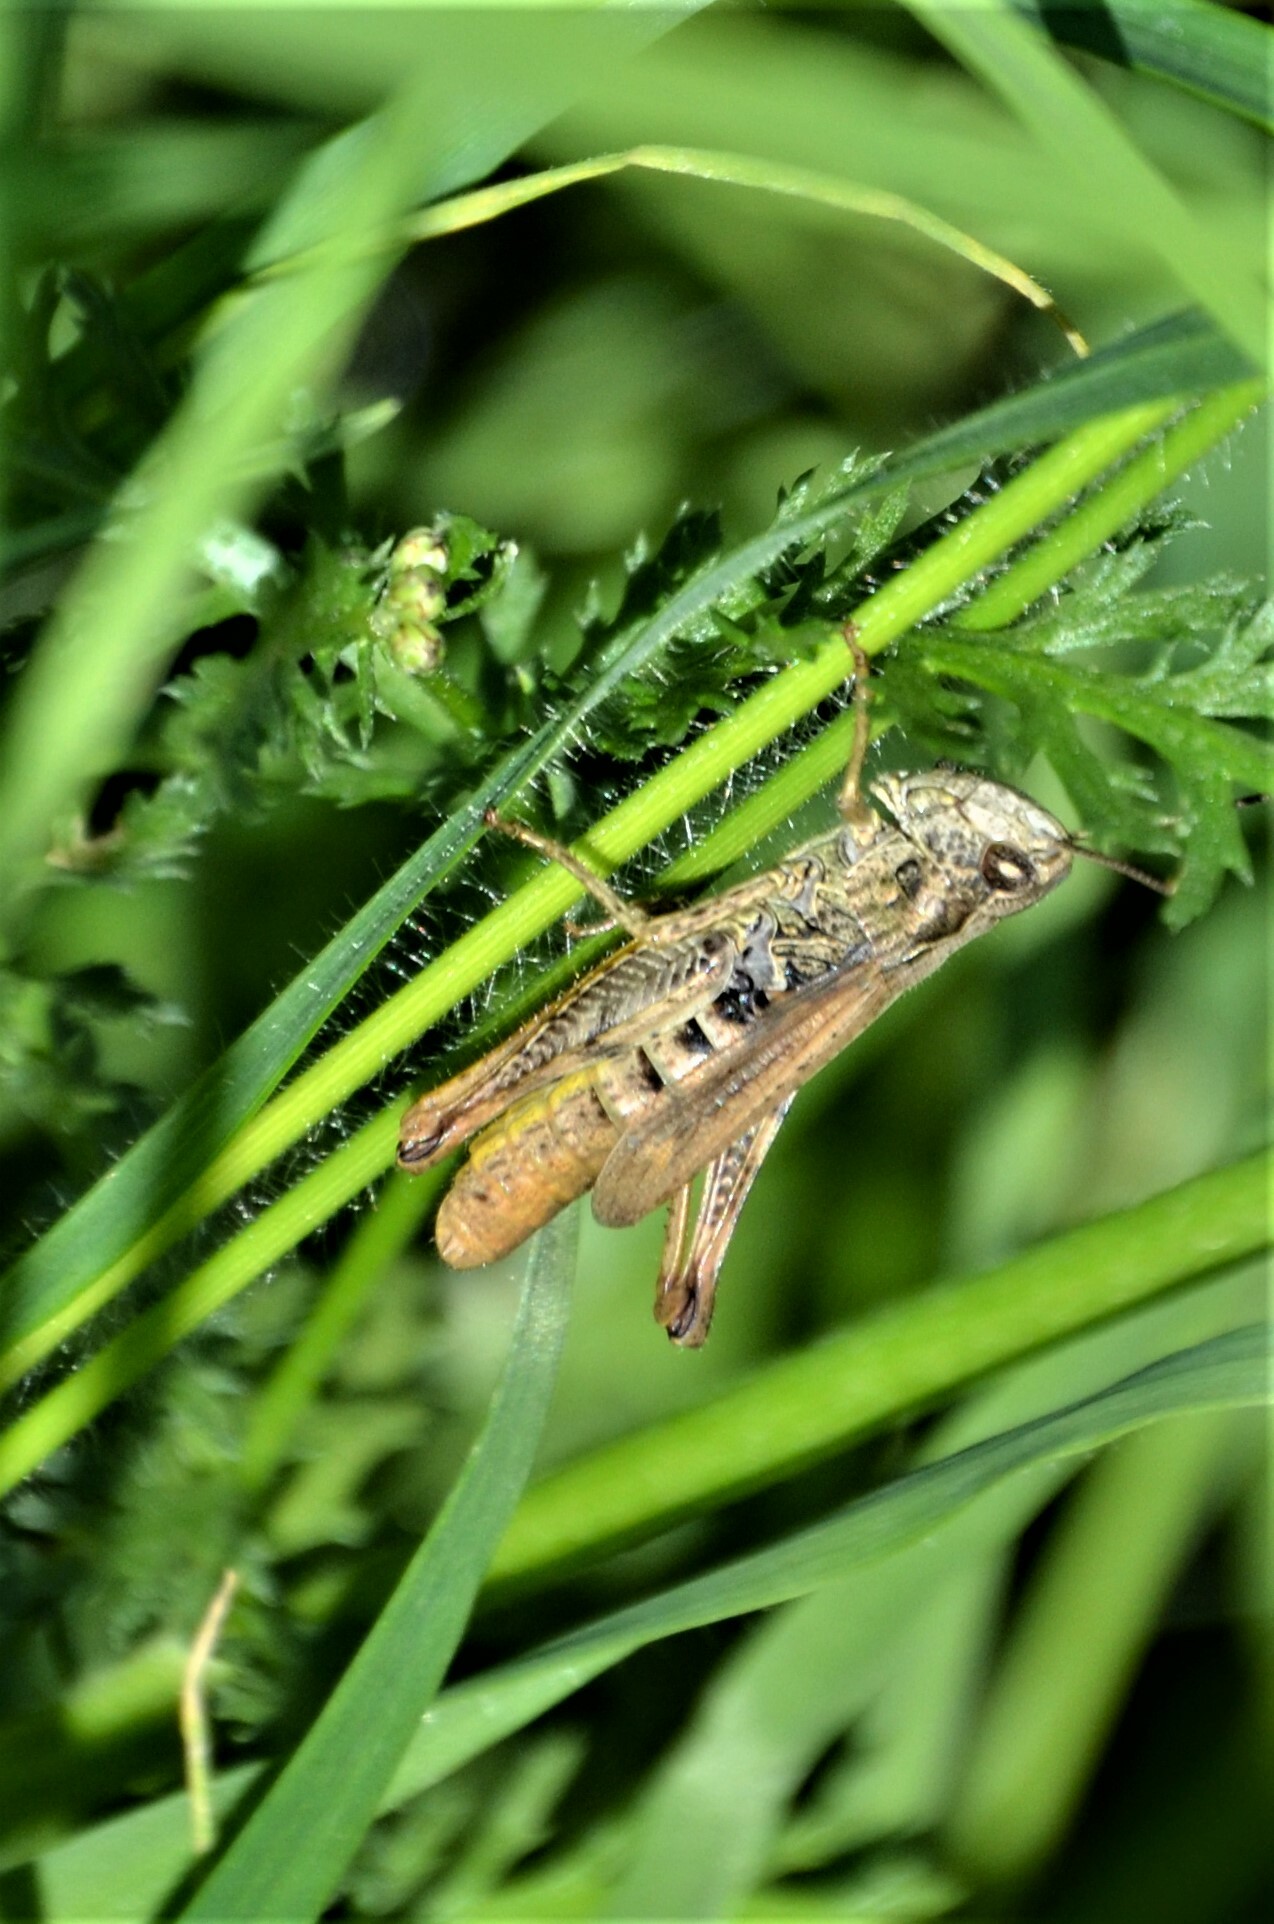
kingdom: Animalia
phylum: Arthropoda
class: Insecta
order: Orthoptera
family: Acrididae
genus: Chorthippus
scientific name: Chorthippus apricarius
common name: Upland field grasshopper
